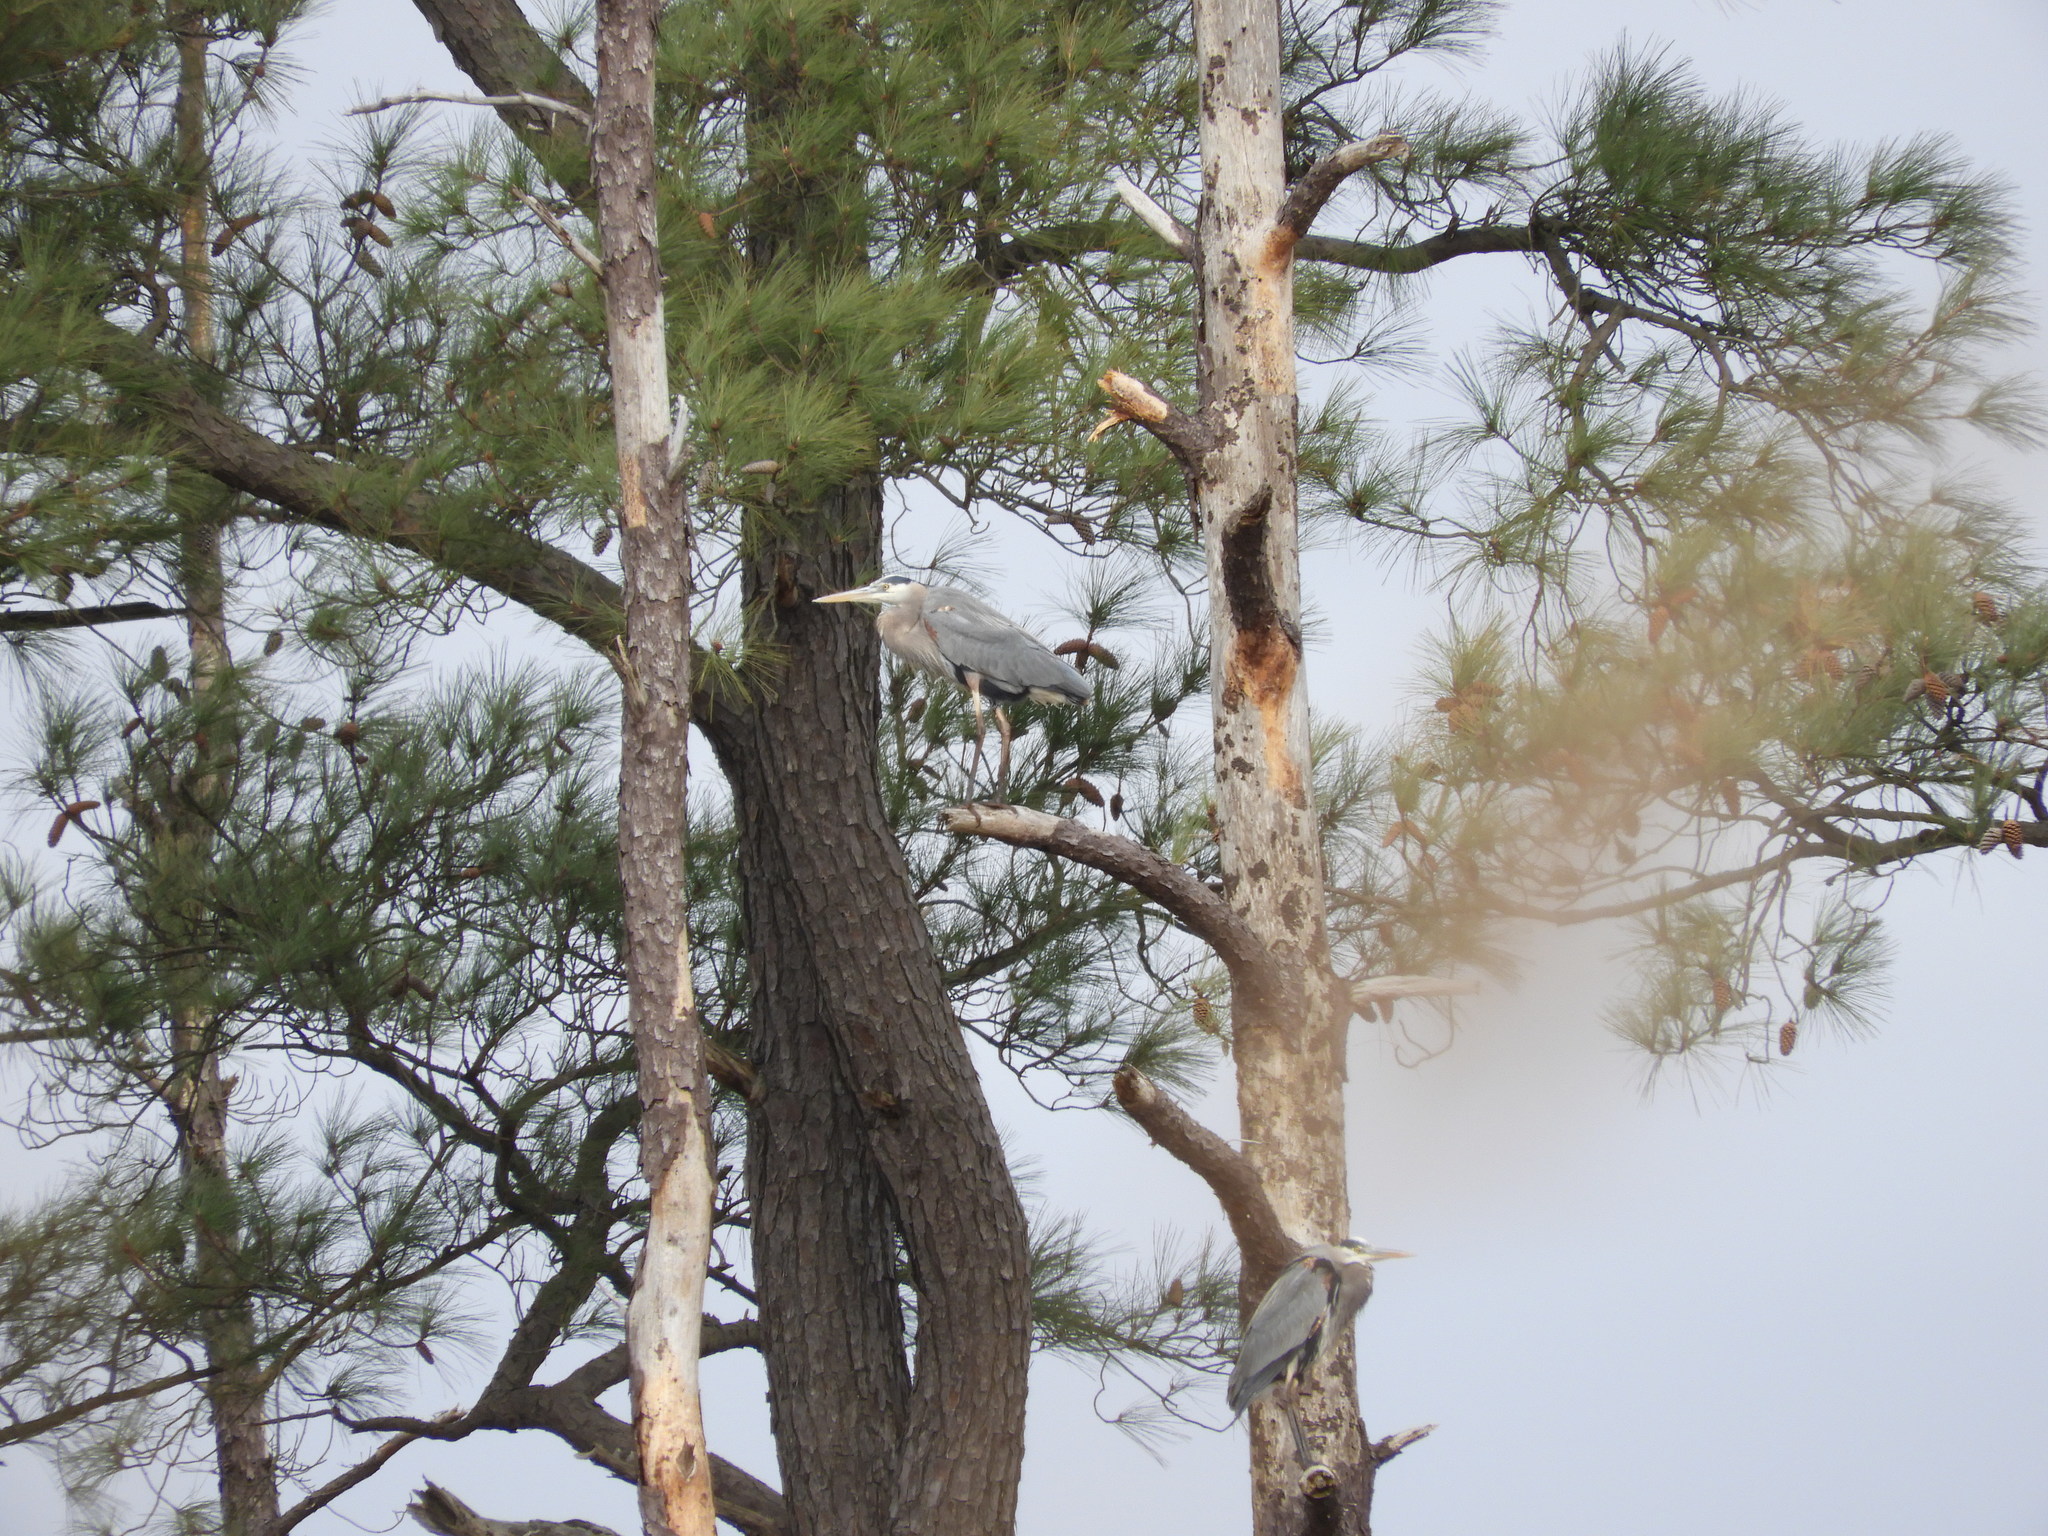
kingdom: Animalia
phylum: Chordata
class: Aves
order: Pelecaniformes
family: Ardeidae
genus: Ardea
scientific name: Ardea herodias
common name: Great blue heron
